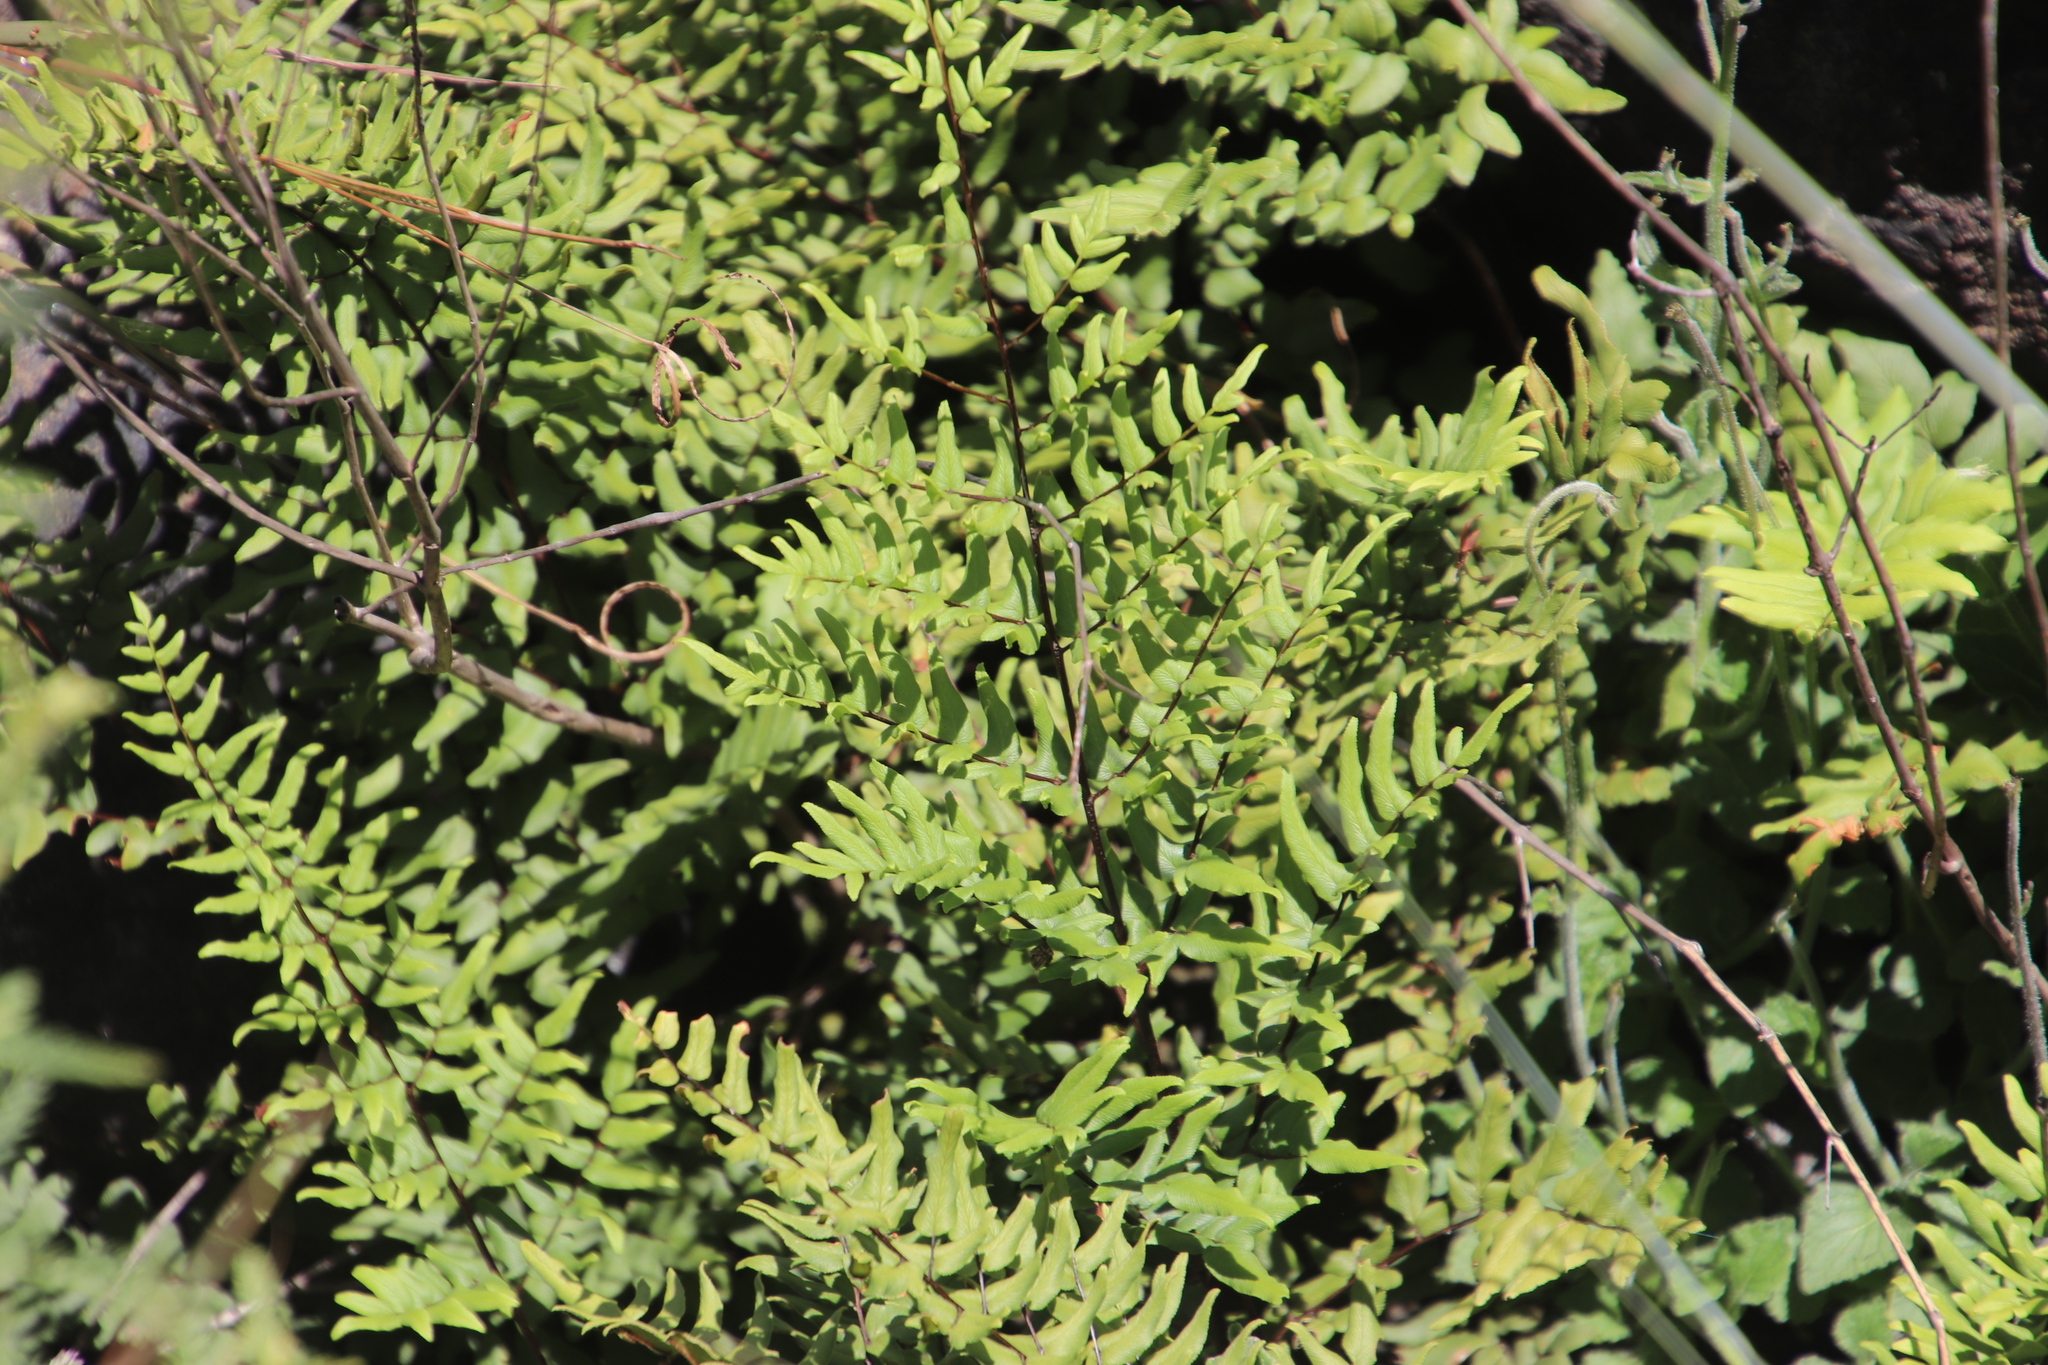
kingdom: Plantae
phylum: Tracheophyta
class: Polypodiopsida
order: Polypodiales
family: Pteridaceae
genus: Cheilanthes
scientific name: Cheilanthes viridis
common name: Green cliffbrake
